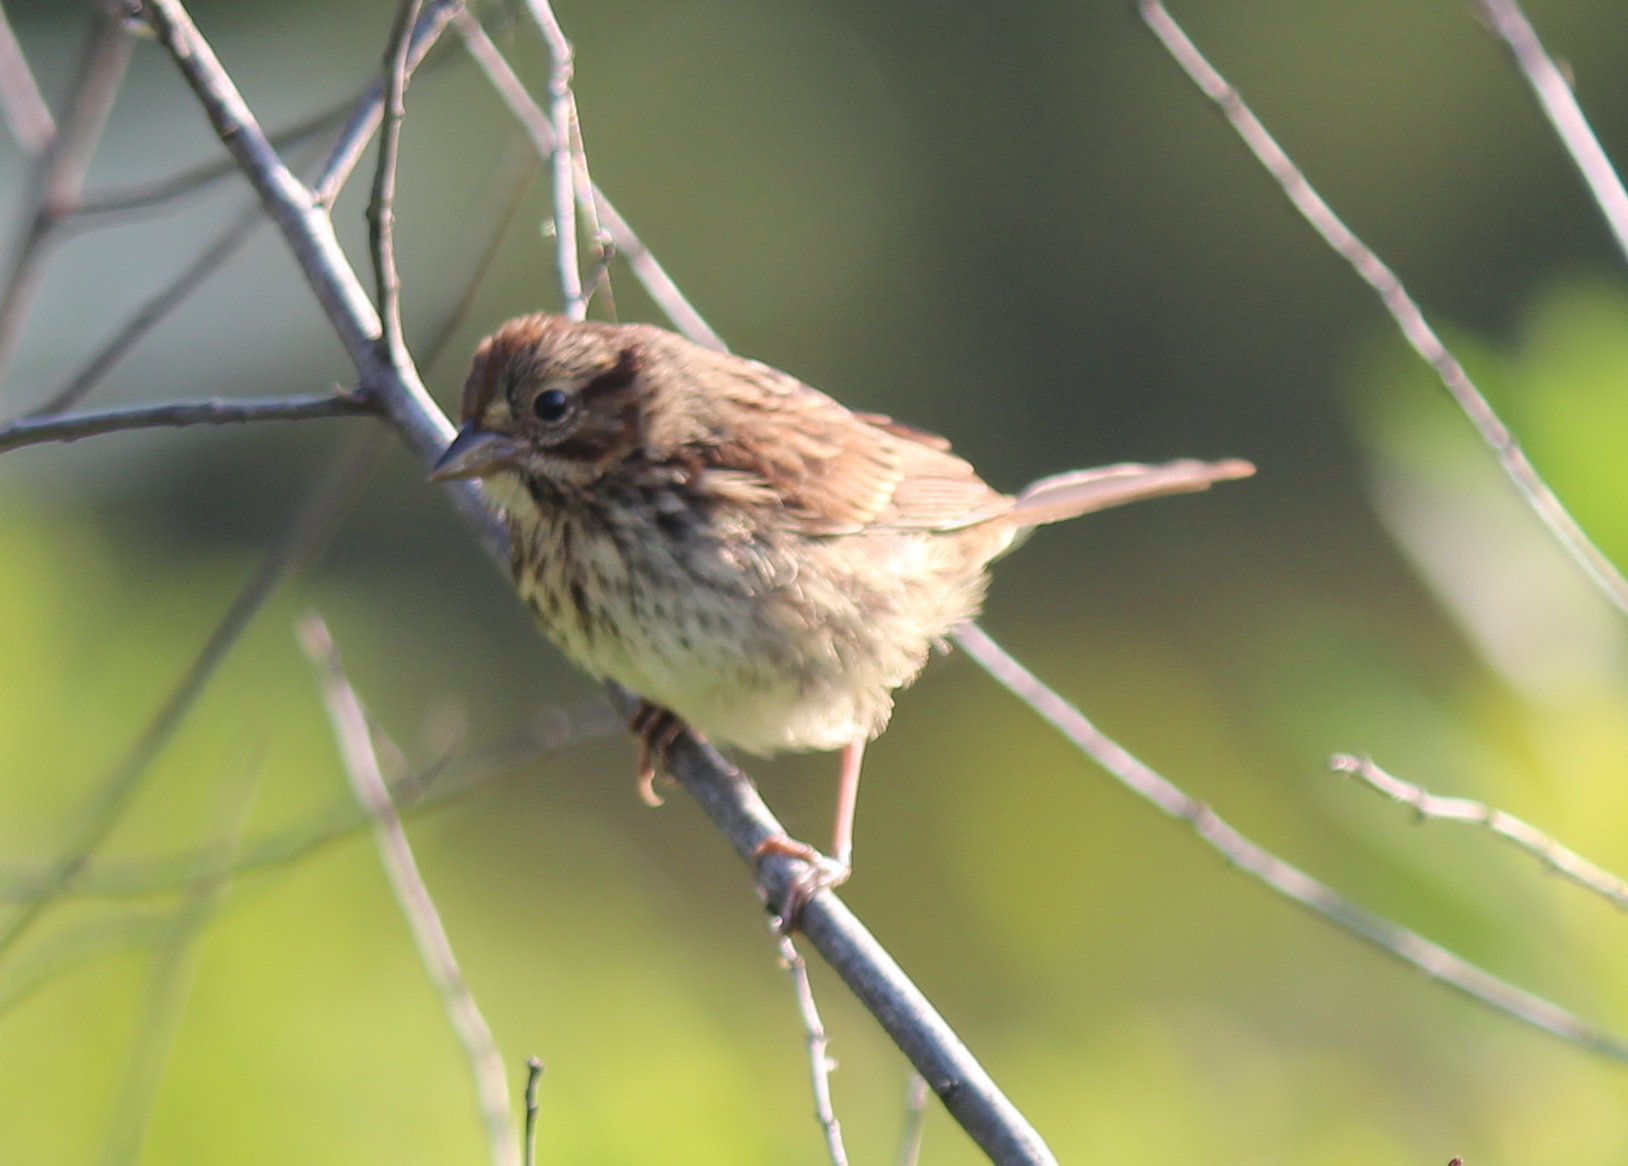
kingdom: Animalia
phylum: Chordata
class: Aves
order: Passeriformes
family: Passerellidae
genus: Melospiza
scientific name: Melospiza melodia
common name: Song sparrow
